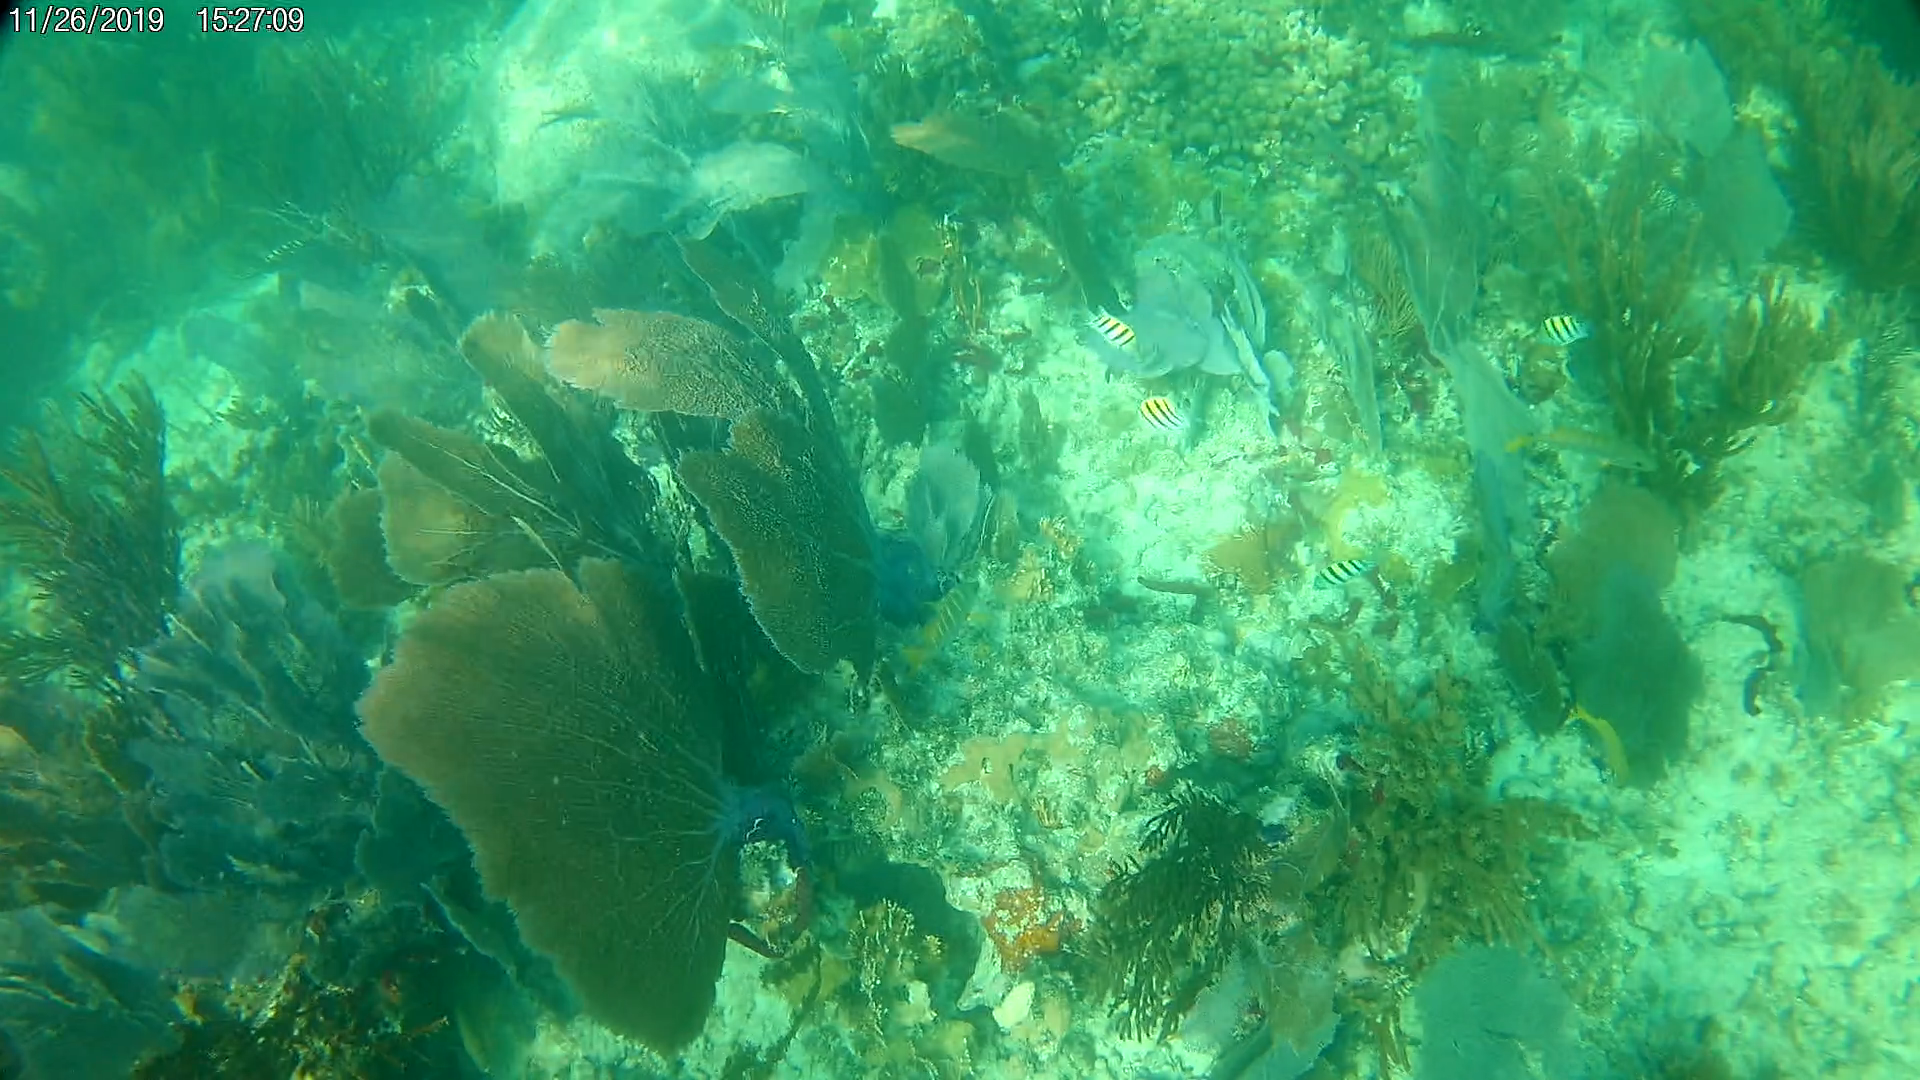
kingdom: Animalia
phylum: Chordata
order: Perciformes
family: Pomacentridae
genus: Abudefduf
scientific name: Abudefduf saxatilis
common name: Sergeant major
